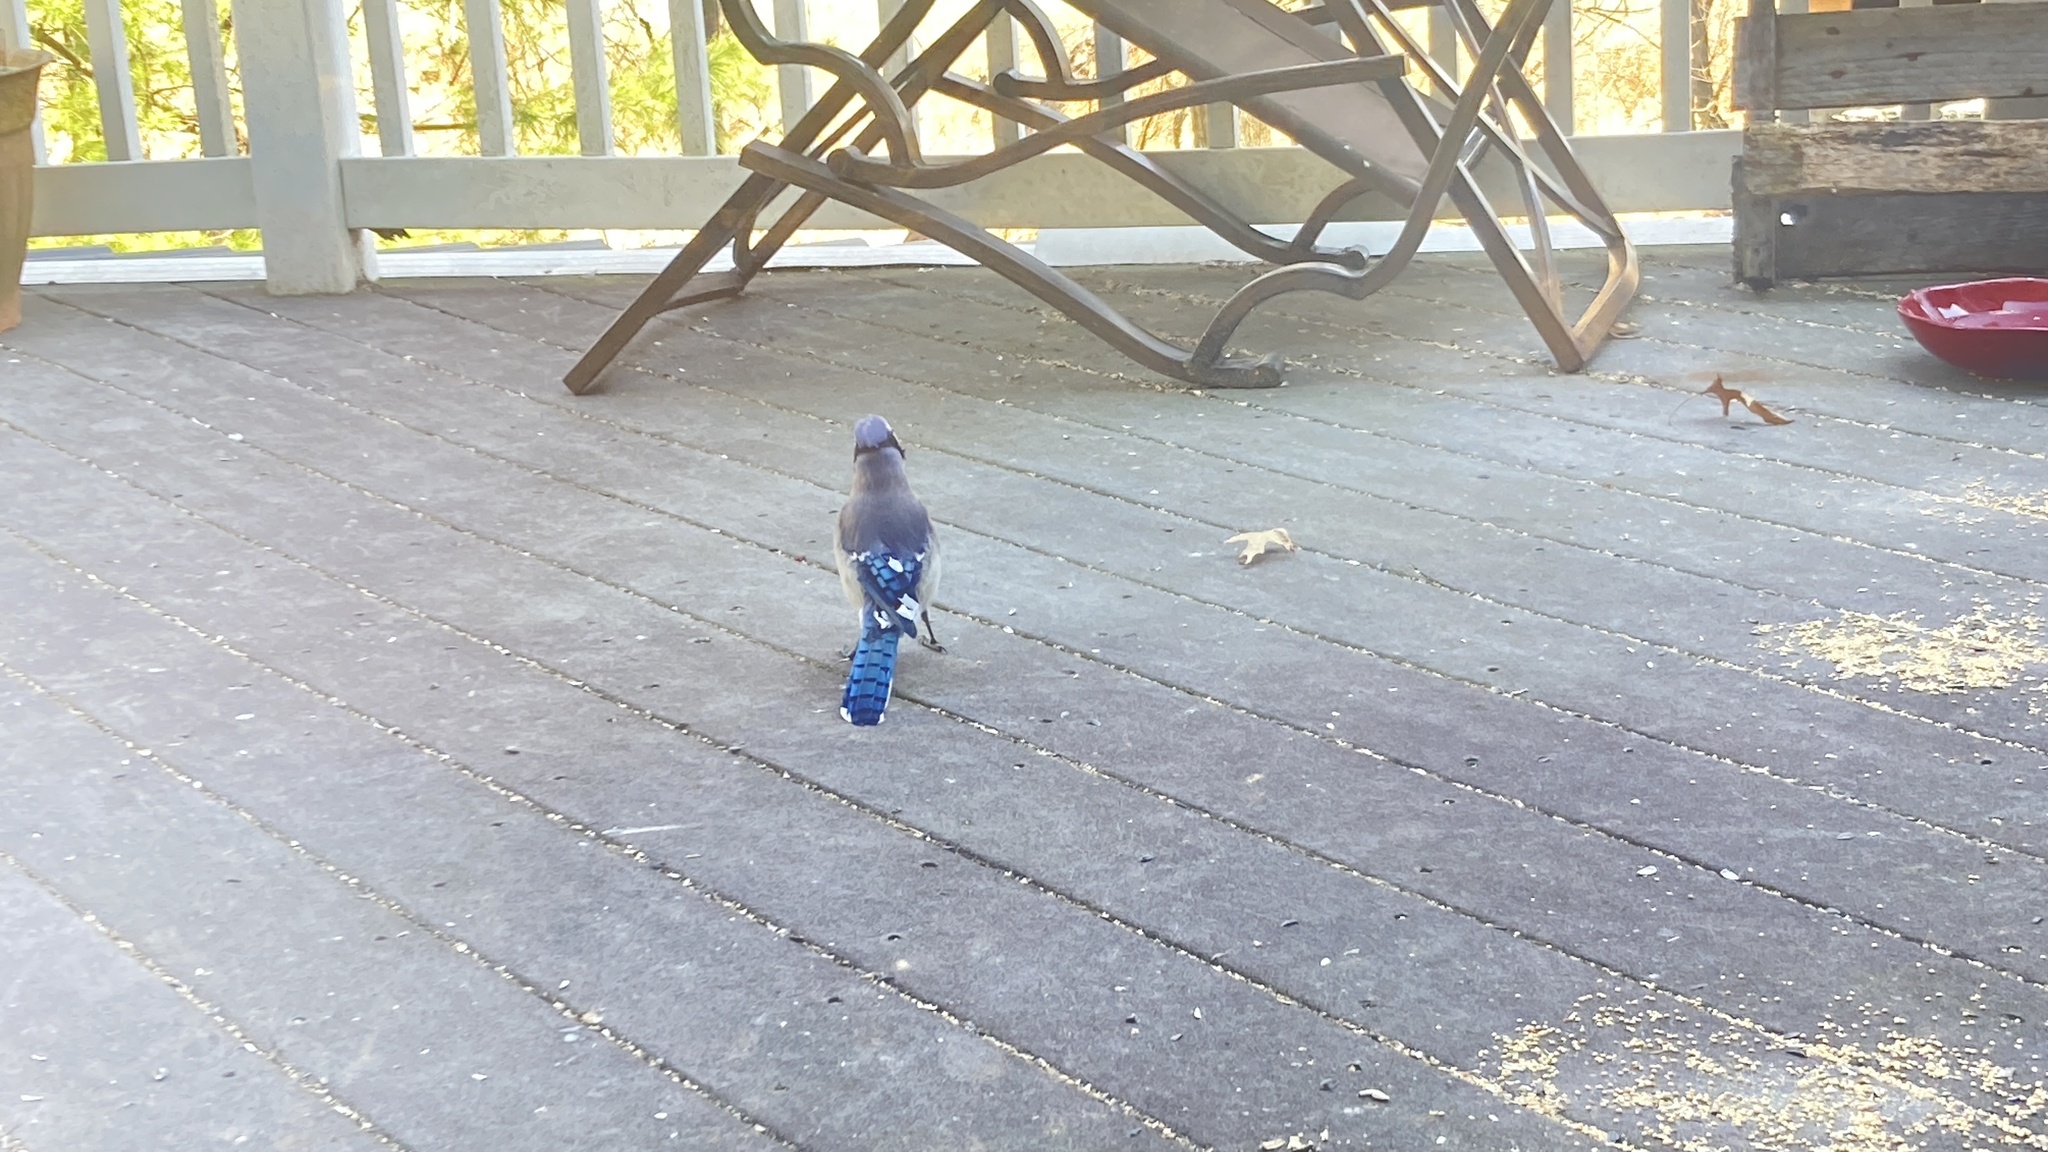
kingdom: Animalia
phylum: Chordata
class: Aves
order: Passeriformes
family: Corvidae
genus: Cyanocitta
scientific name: Cyanocitta cristata
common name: Blue jay
